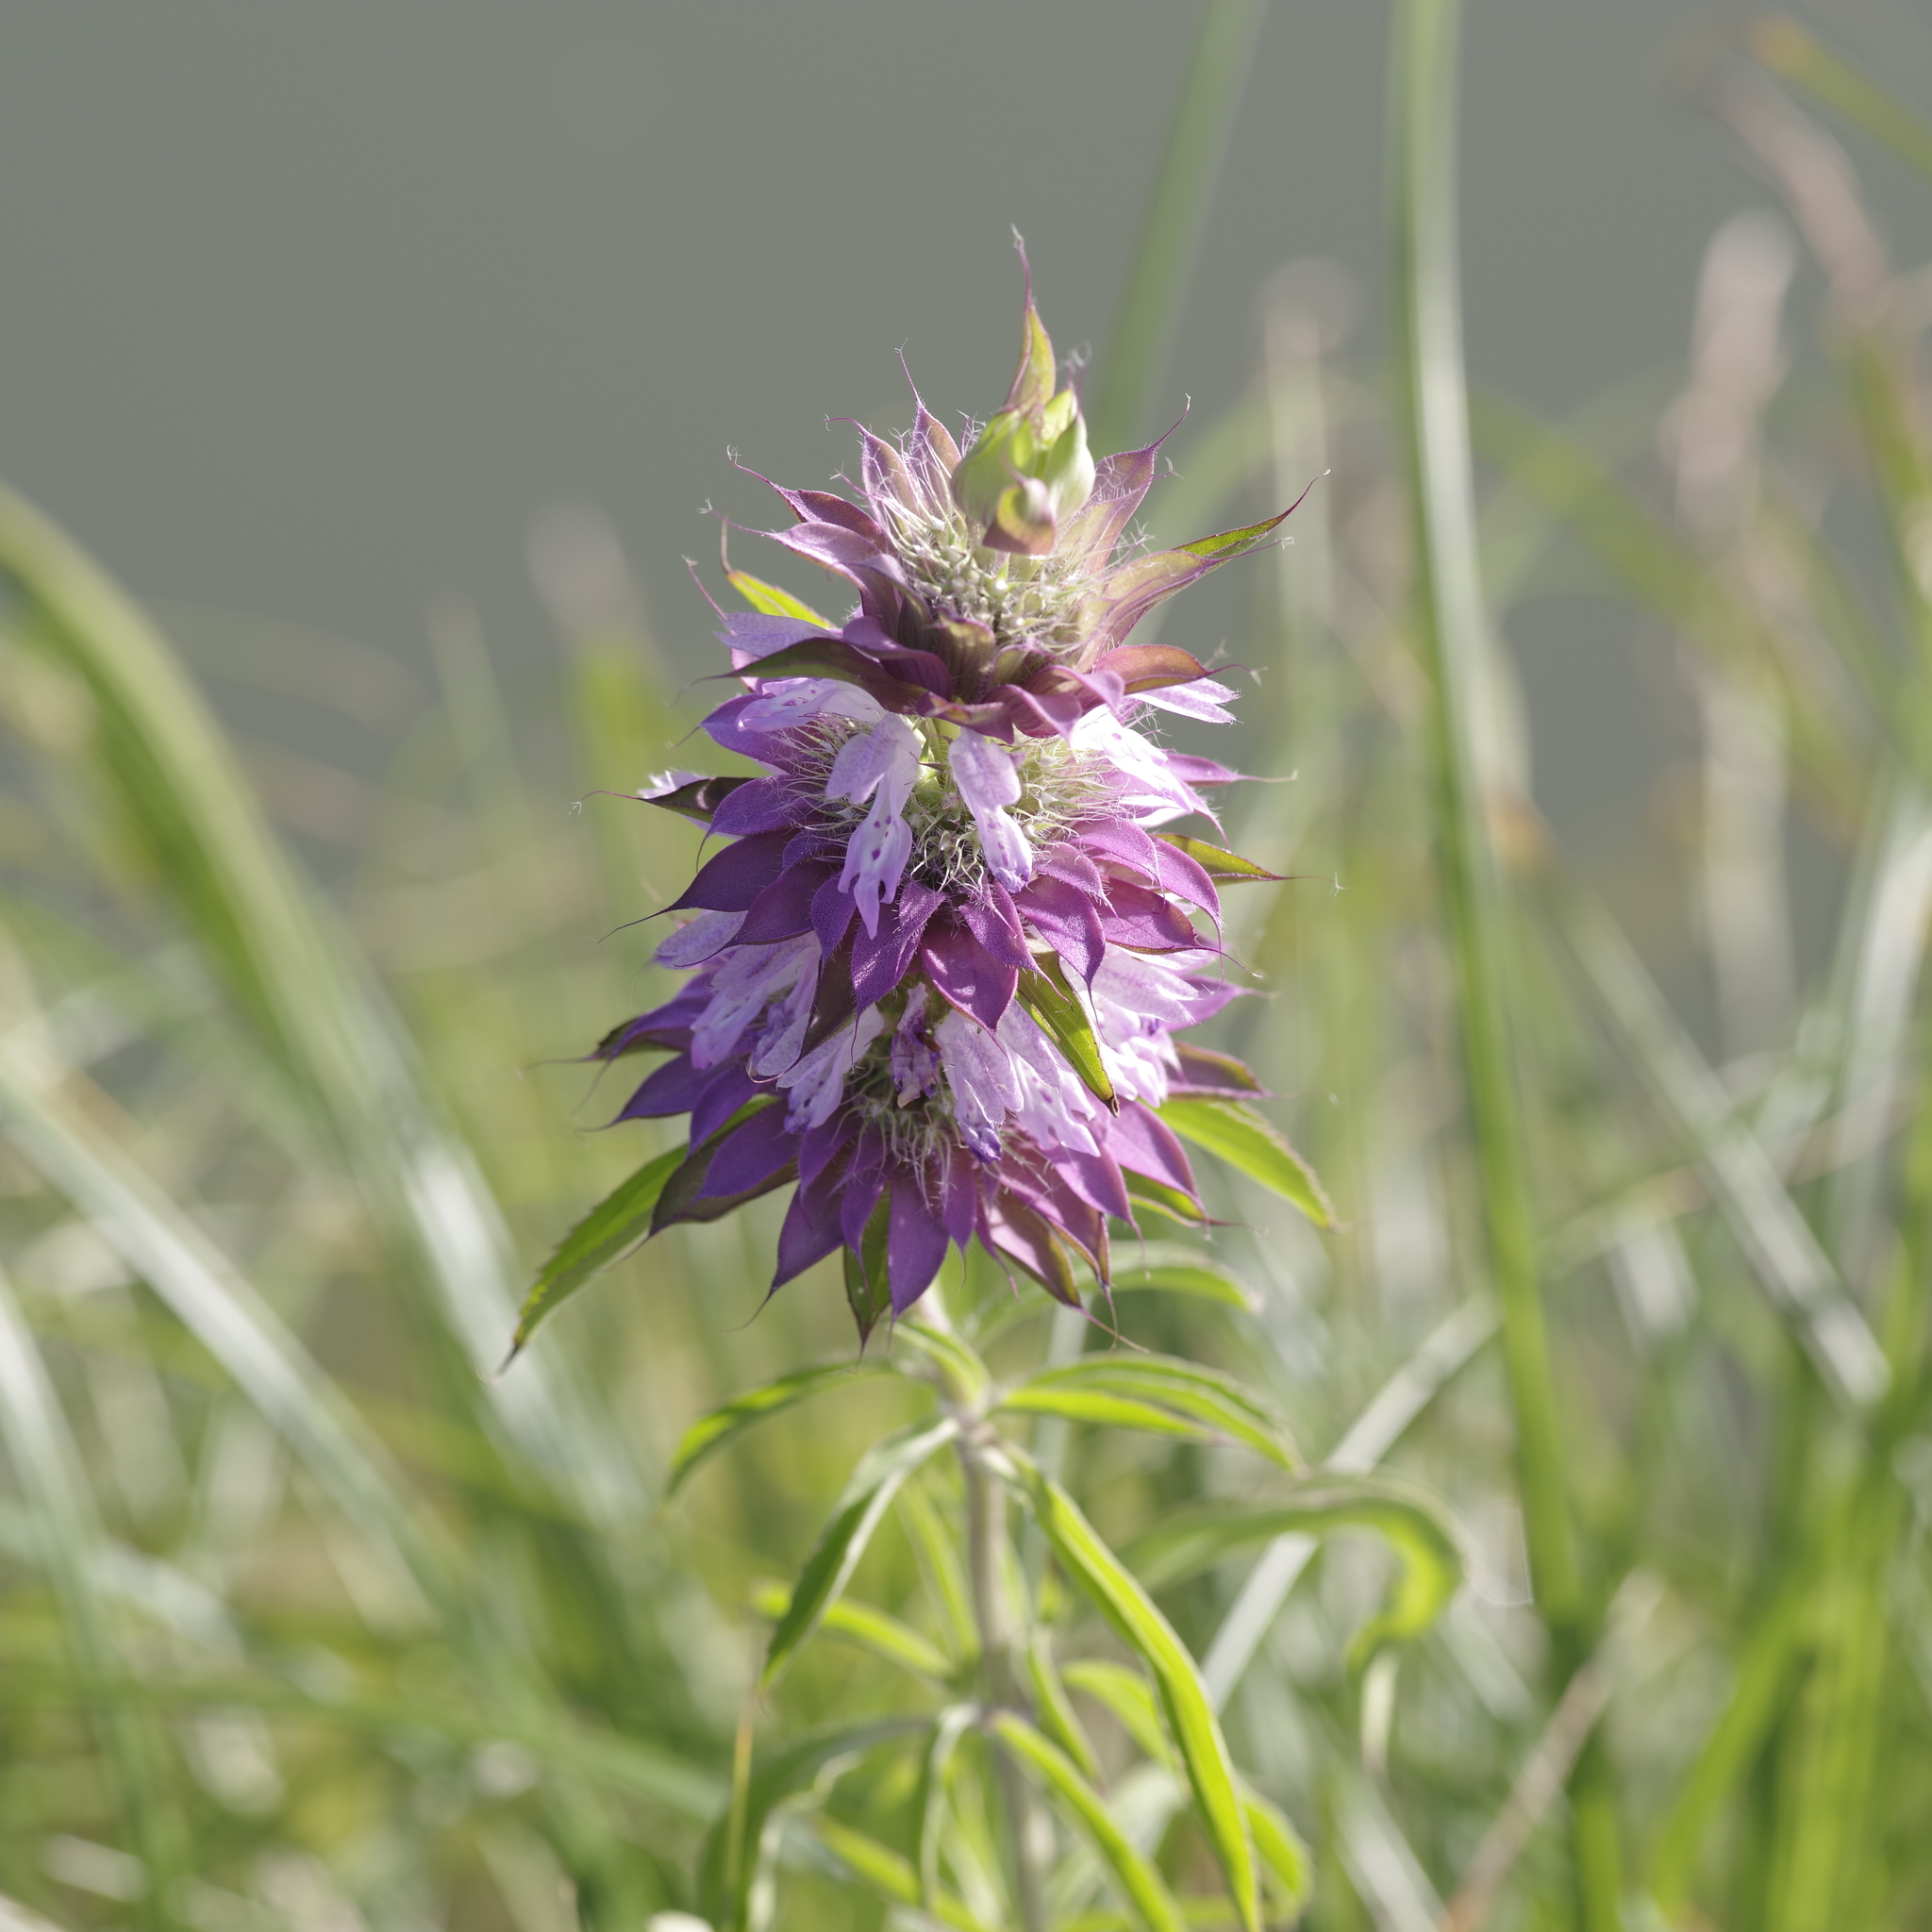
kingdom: Plantae
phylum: Tracheophyta
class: Magnoliopsida
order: Lamiales
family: Lamiaceae
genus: Monarda
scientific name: Monarda citriodora
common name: Lemon beebalm
